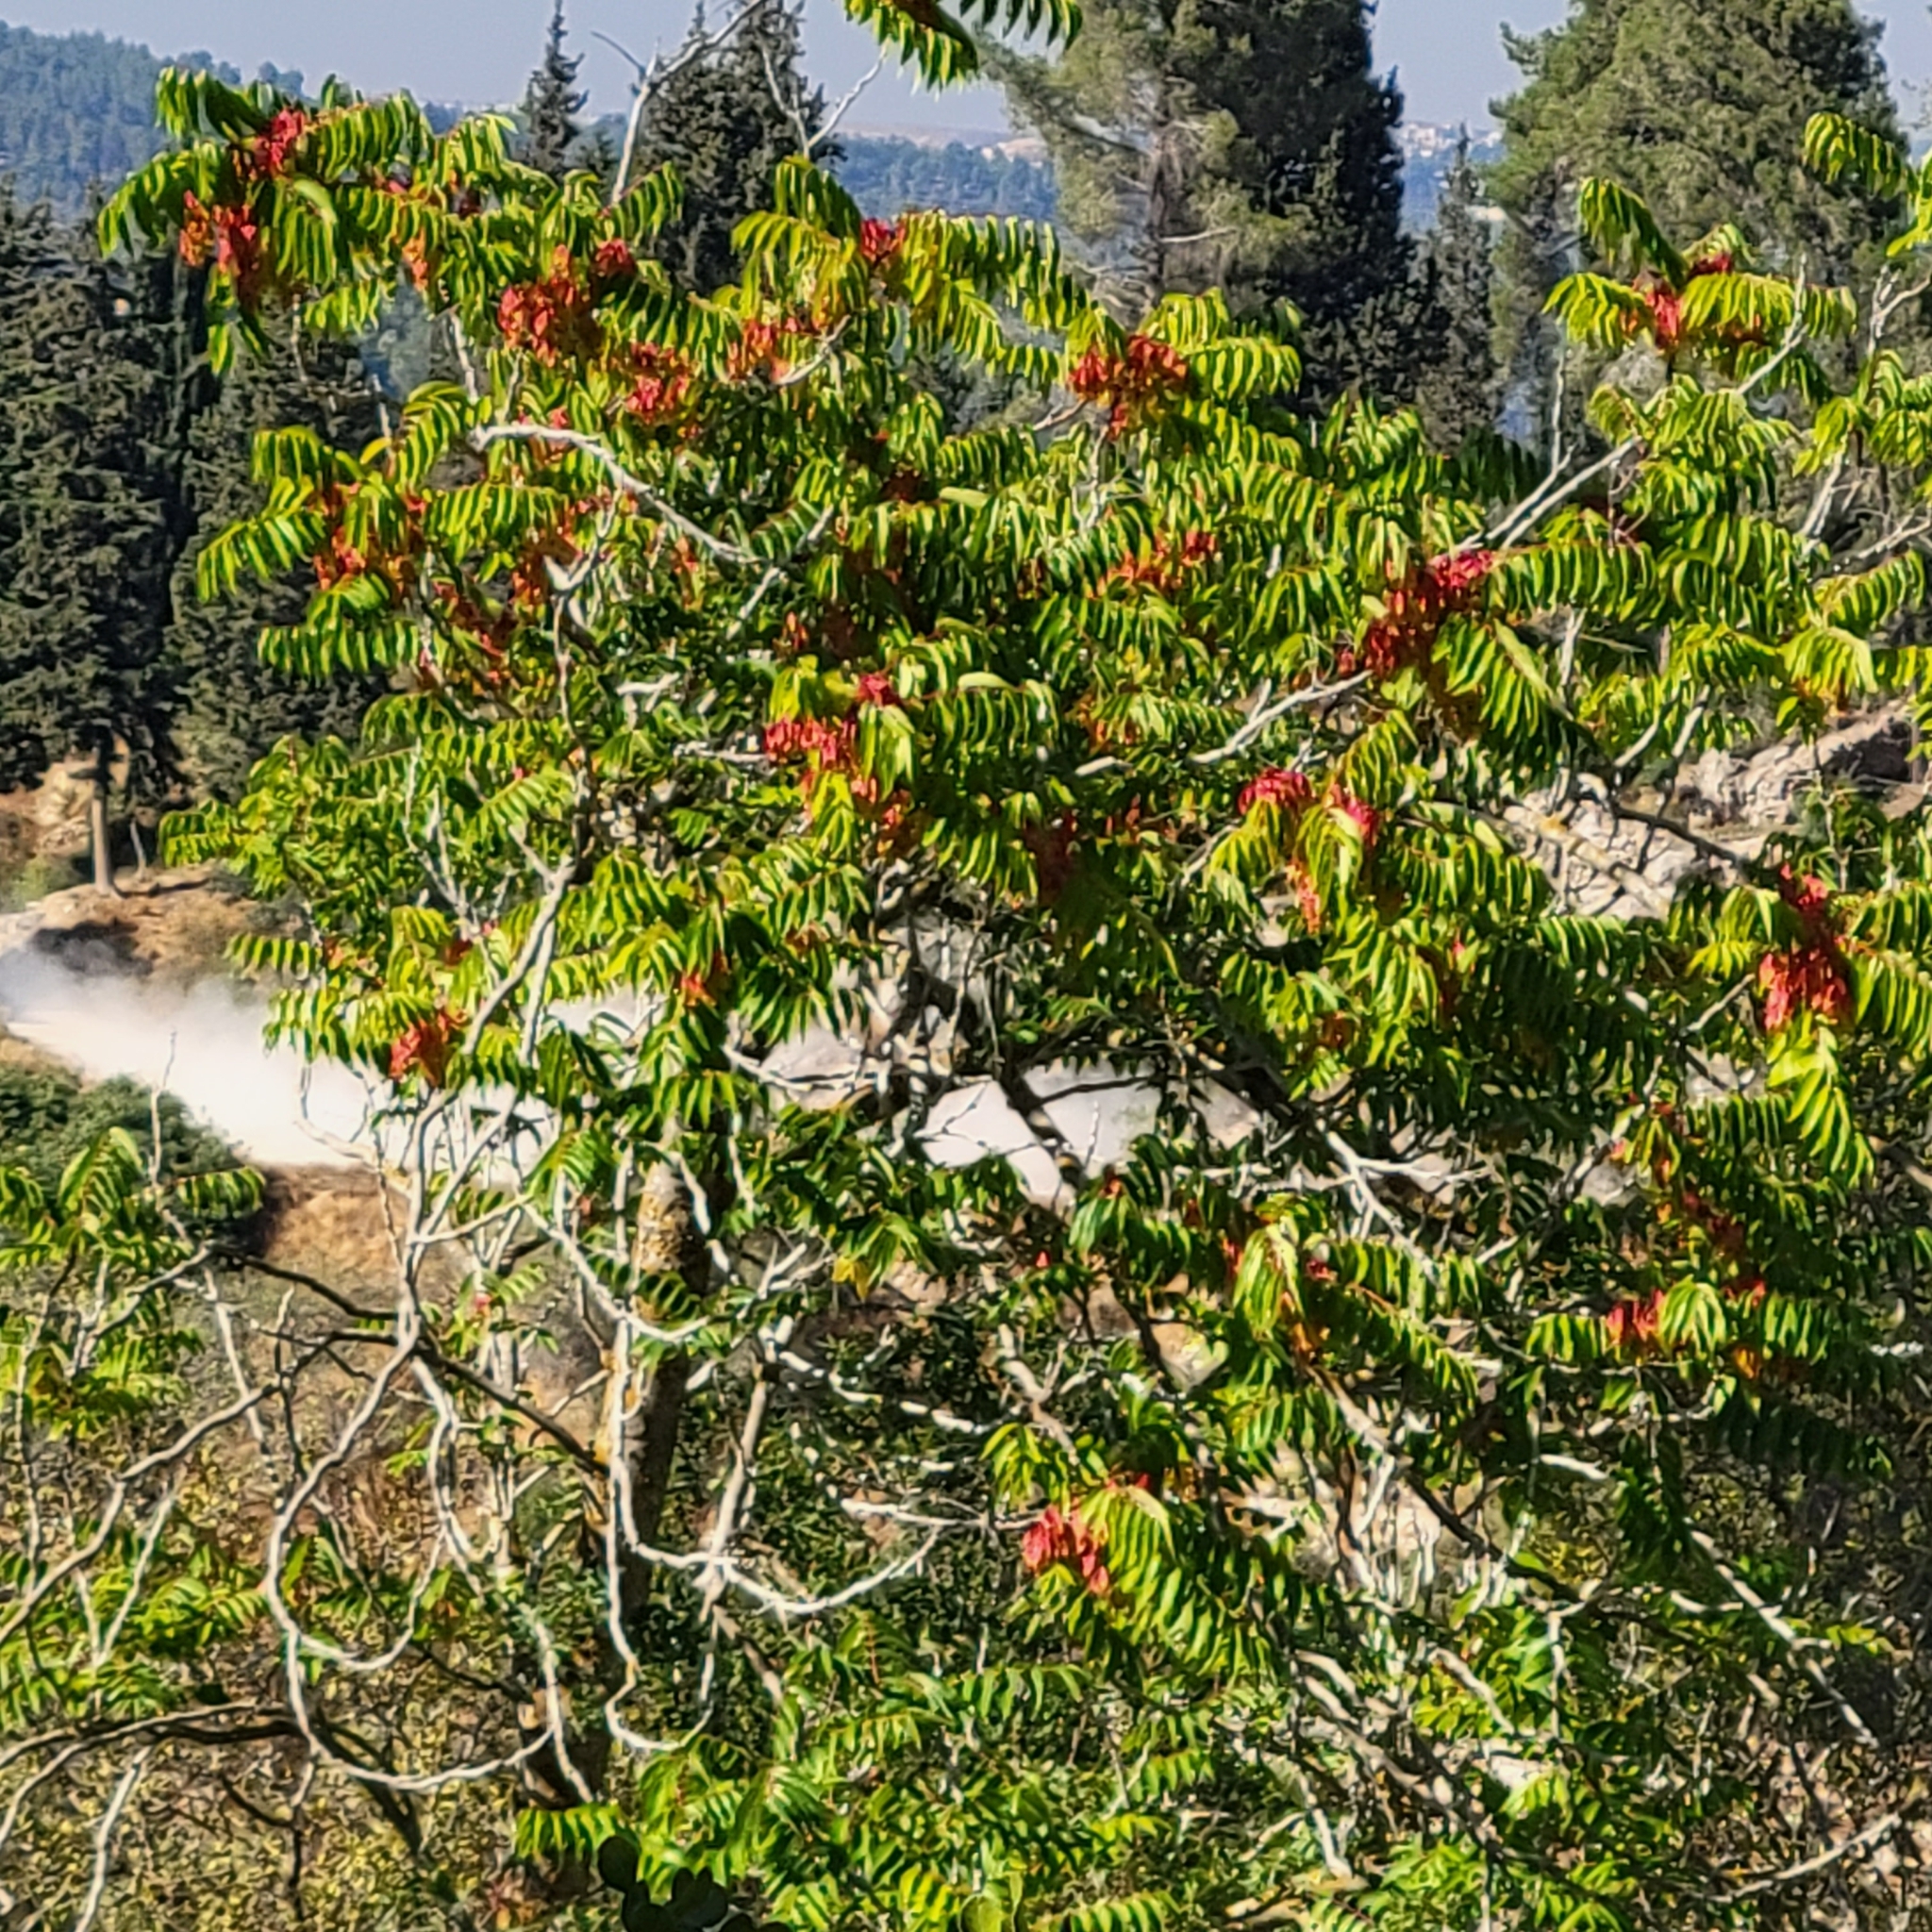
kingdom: Plantae
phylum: Tracheophyta
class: Magnoliopsida
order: Sapindales
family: Simaroubaceae
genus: Ailanthus
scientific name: Ailanthus altissima
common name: Tree-of-heaven
